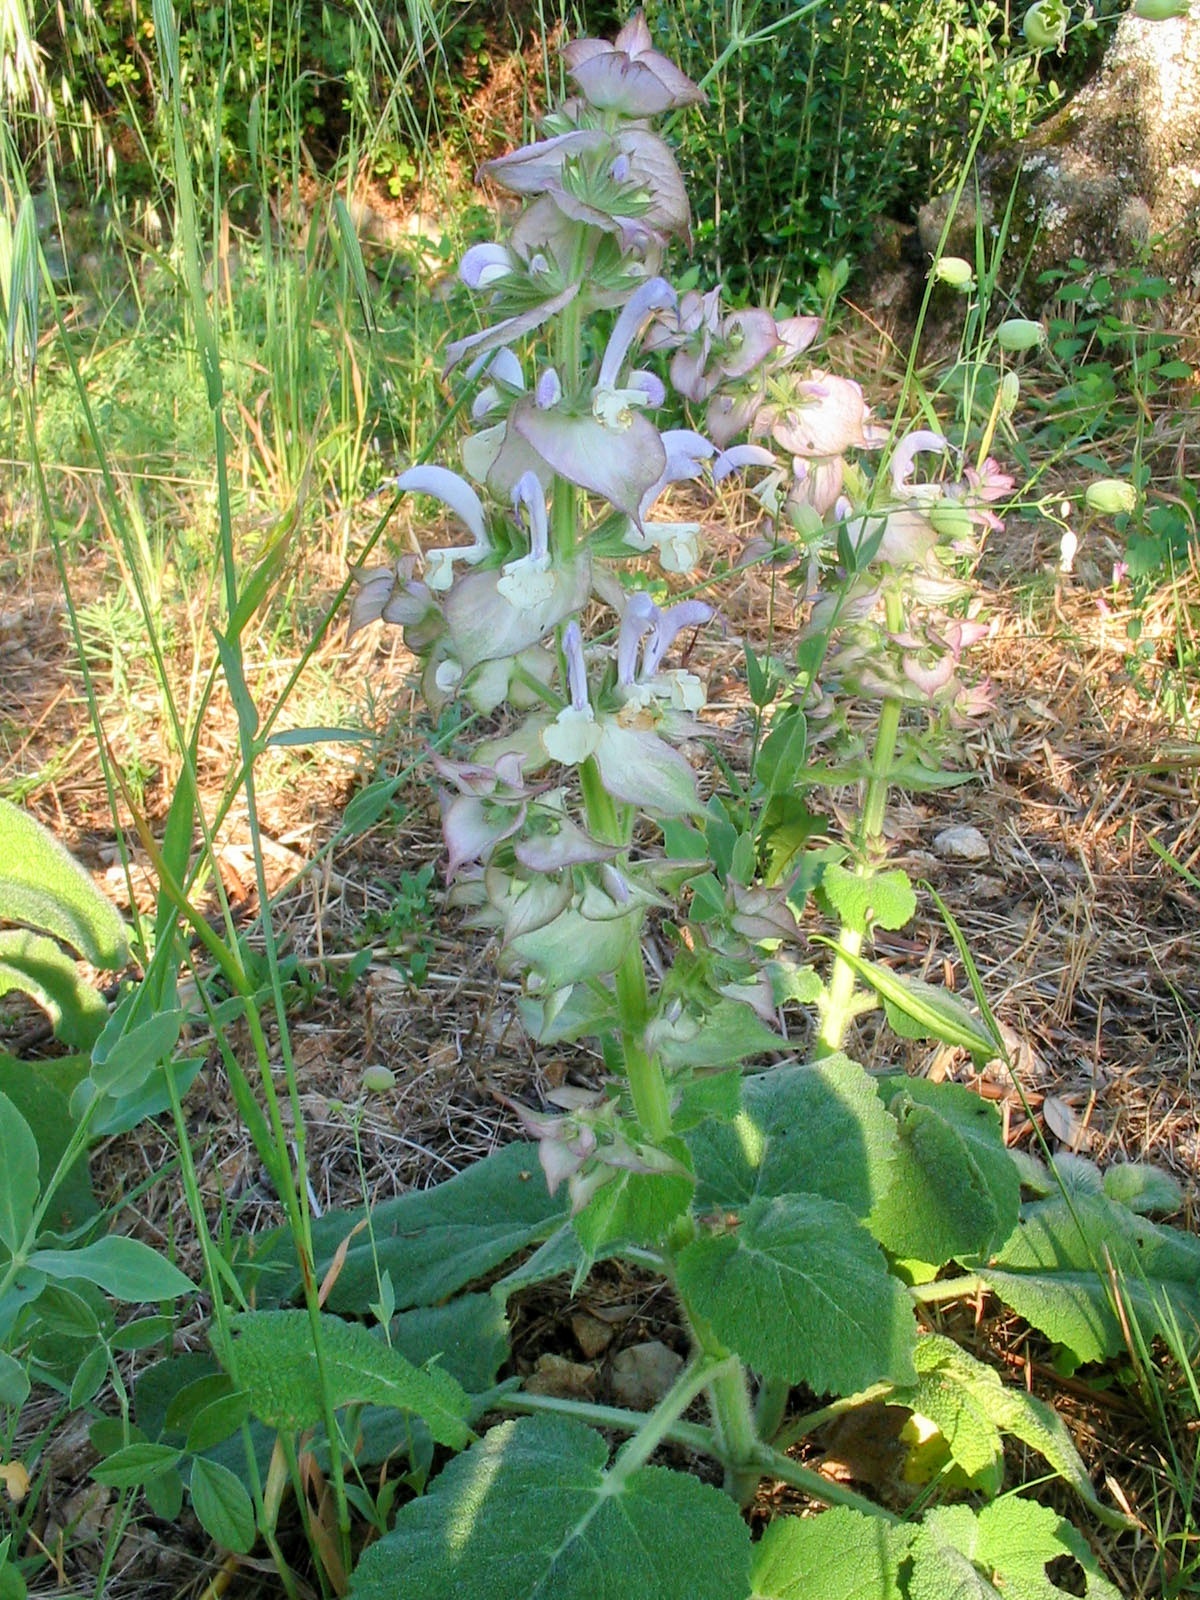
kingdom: Plantae
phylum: Tracheophyta
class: Magnoliopsida
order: Lamiales
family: Lamiaceae
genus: Salvia
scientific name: Salvia sclarea
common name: Clary
